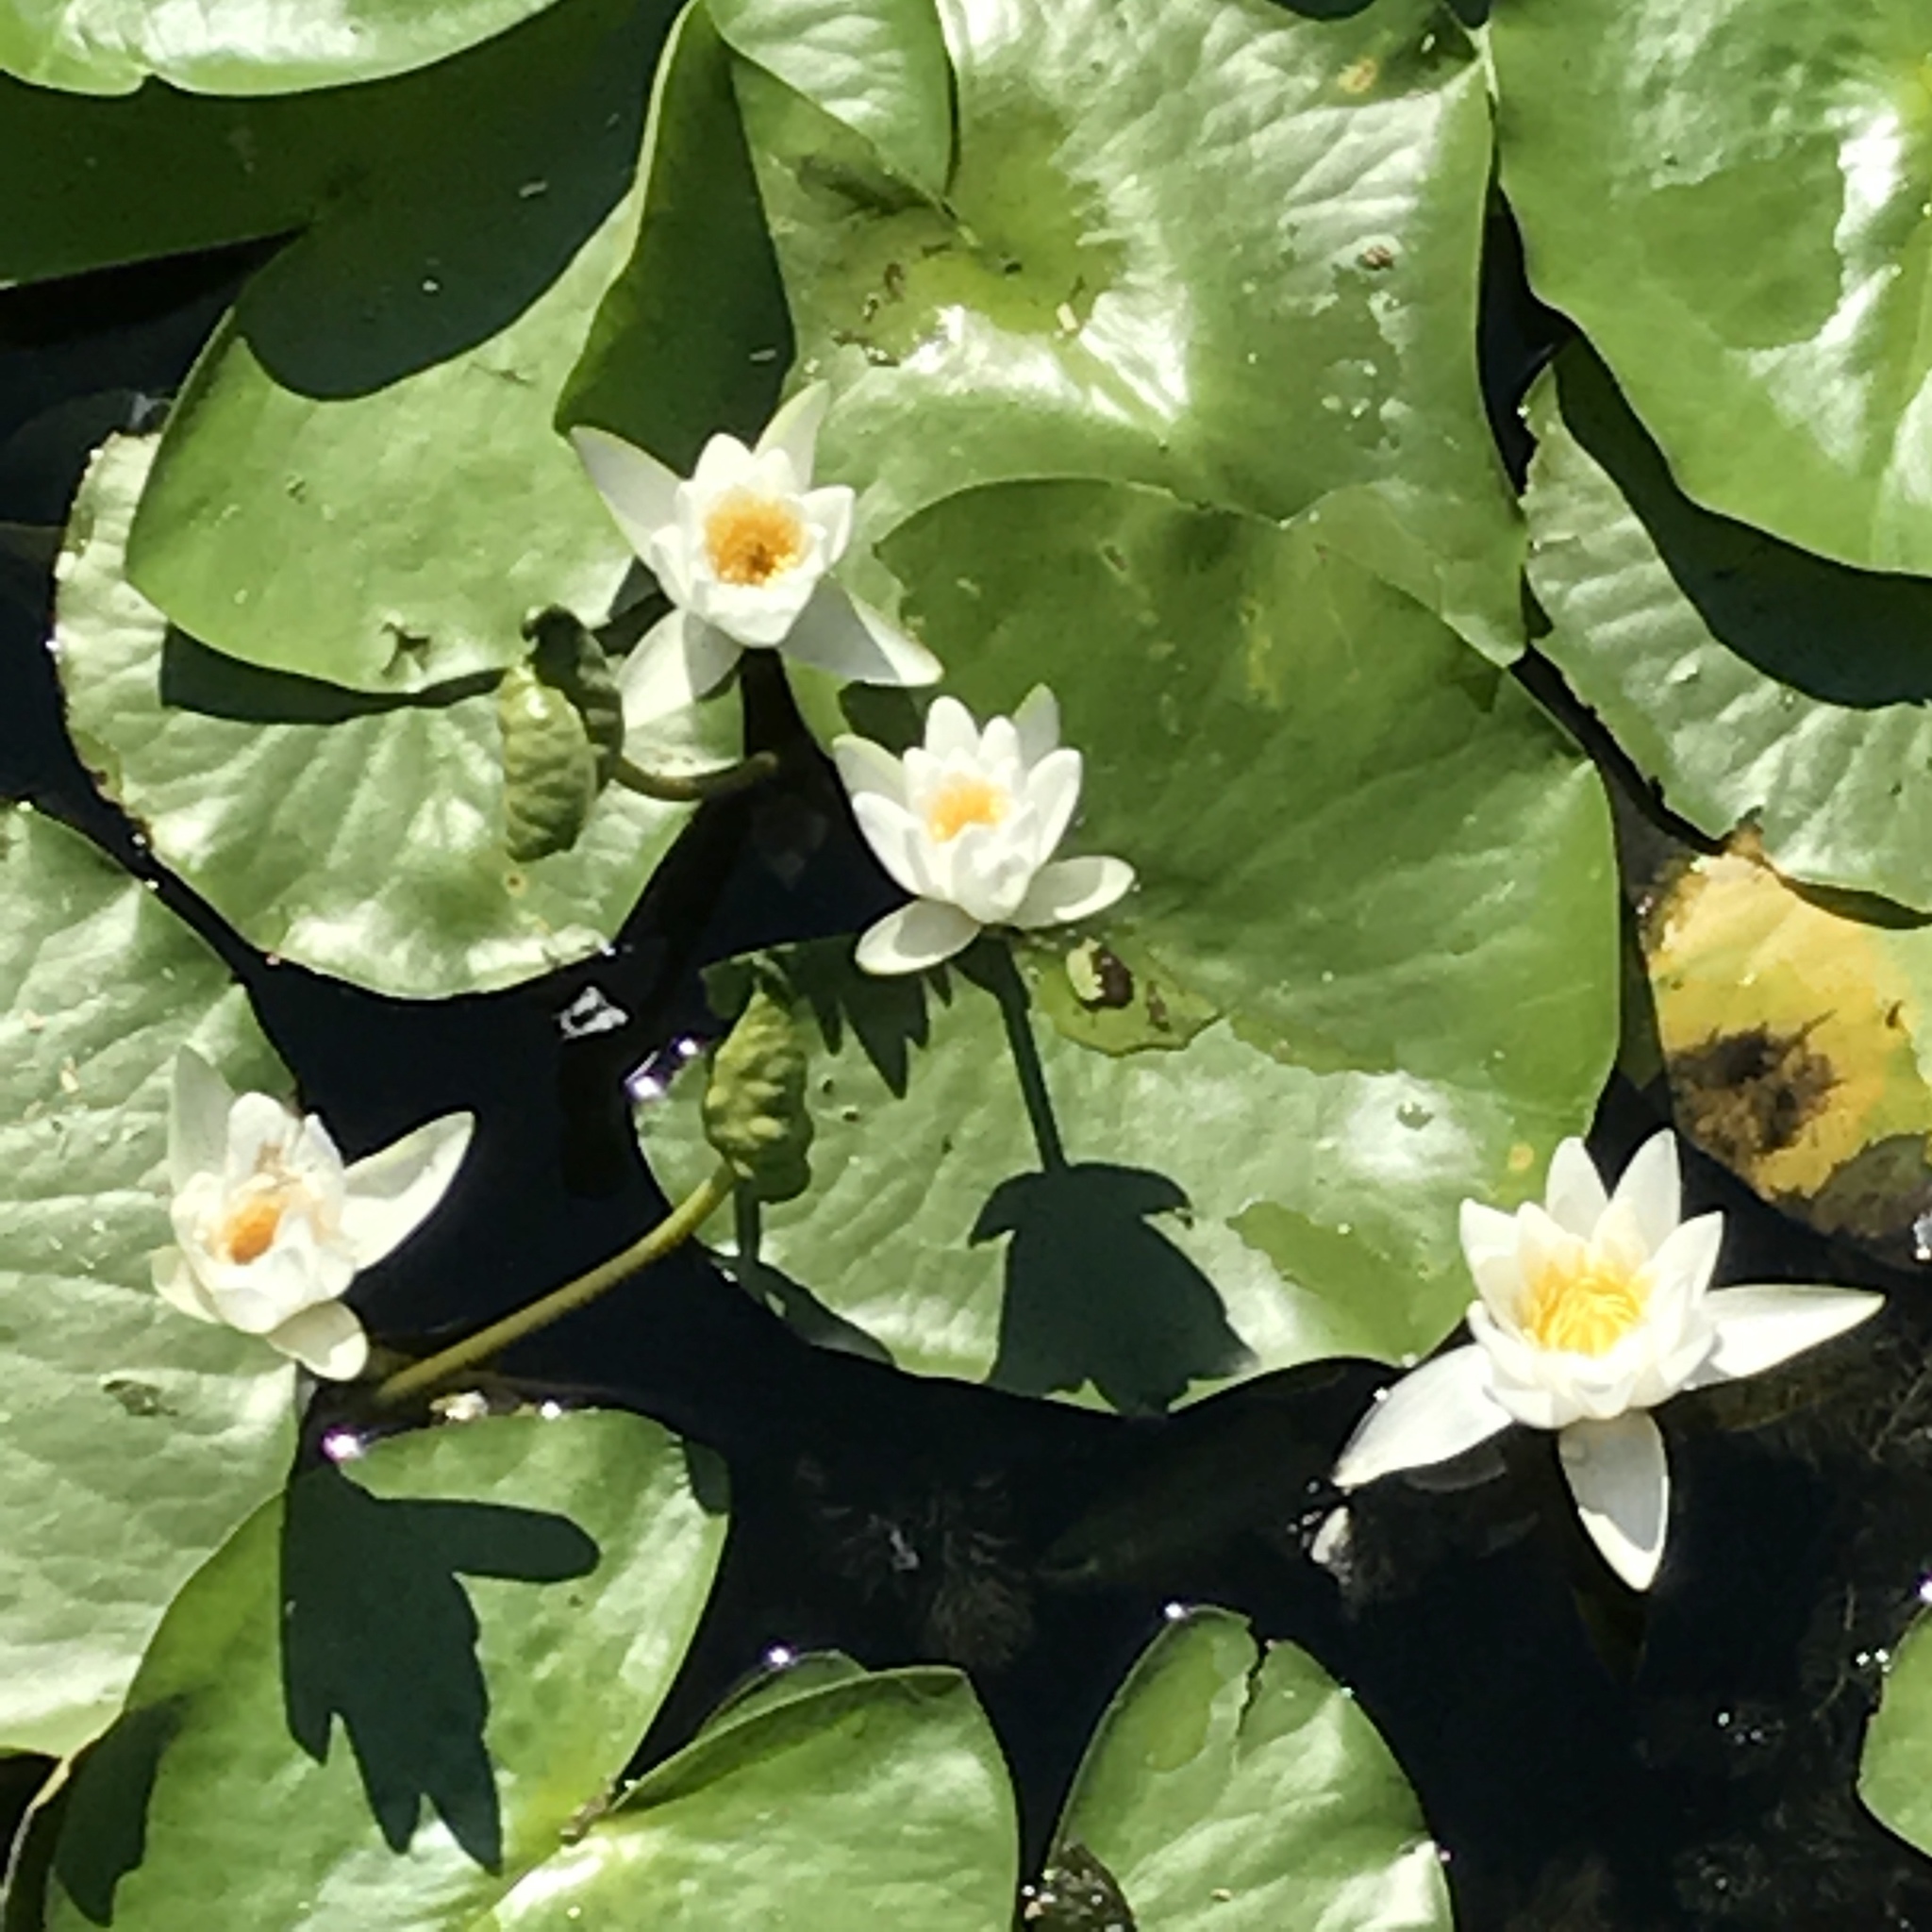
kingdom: Plantae
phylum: Tracheophyta
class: Magnoliopsida
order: Nymphaeales
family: Nymphaeaceae
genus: Nymphaea
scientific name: Nymphaea alba
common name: White water-lily
